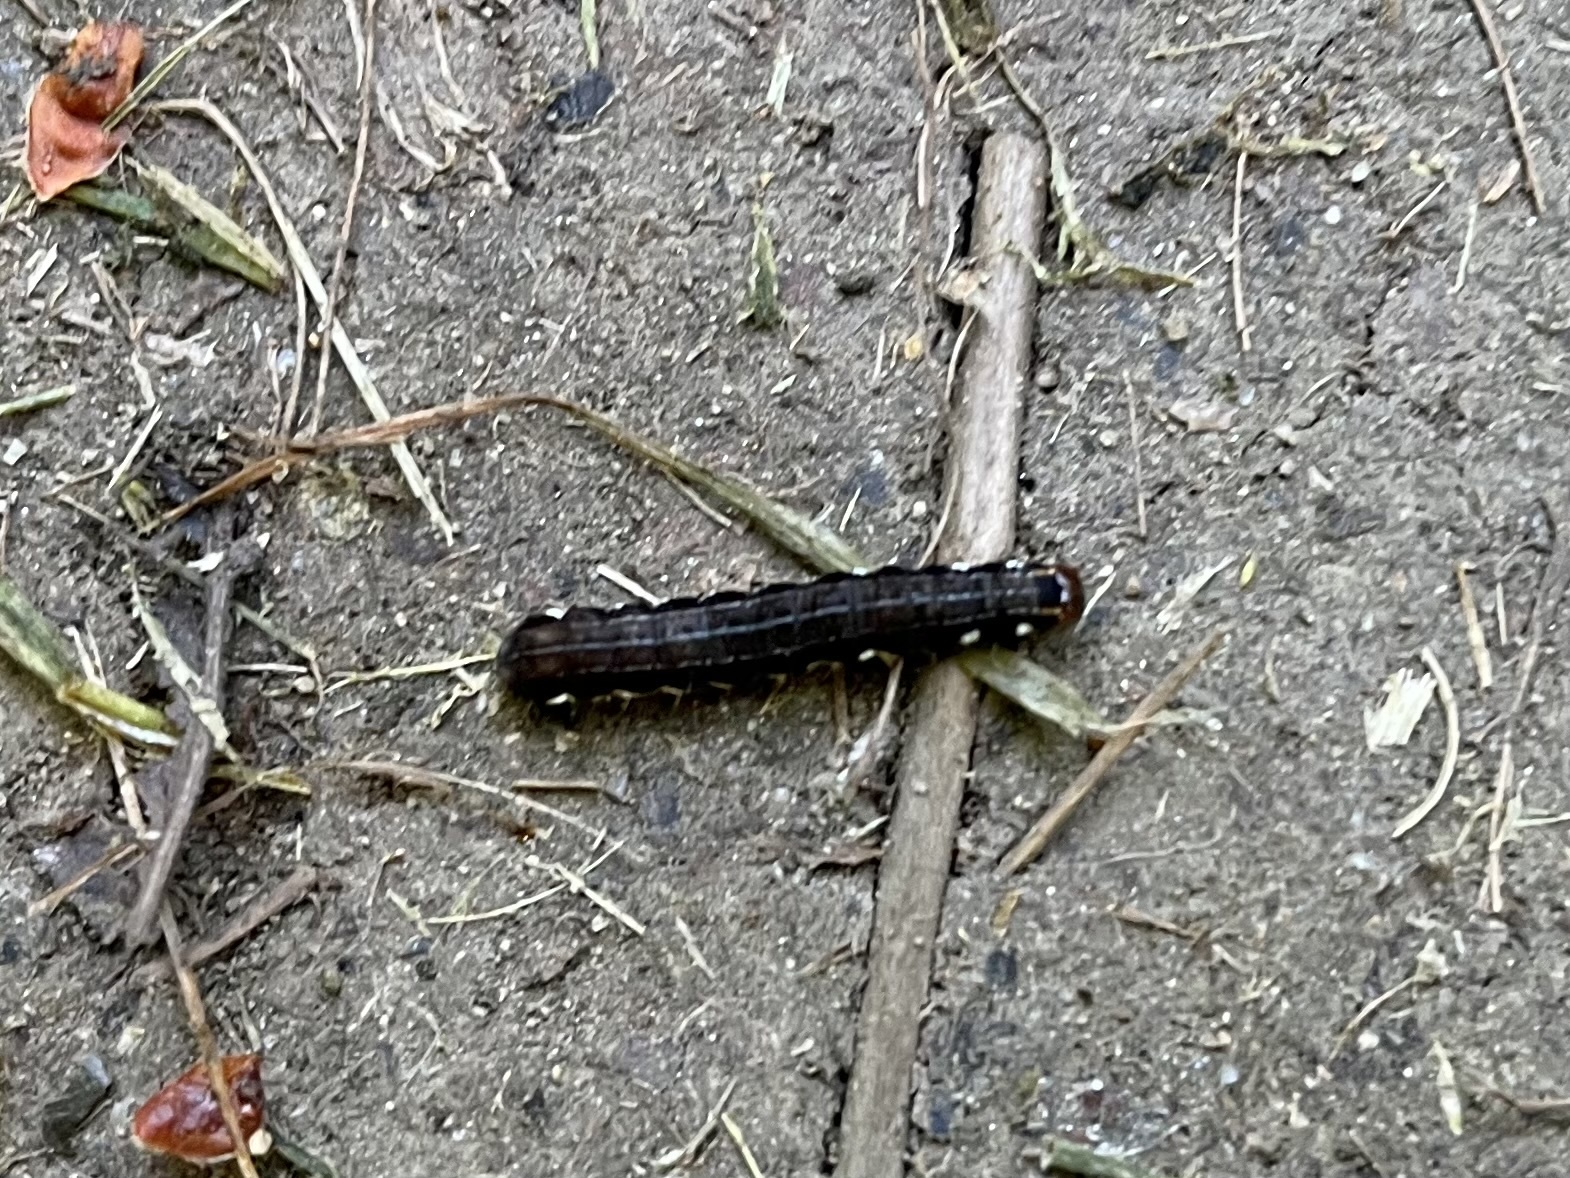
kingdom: Animalia
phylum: Arthropoda
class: Insecta
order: Lepidoptera
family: Noctuidae
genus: Eupsilia
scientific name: Eupsilia transversa
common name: Satellite
